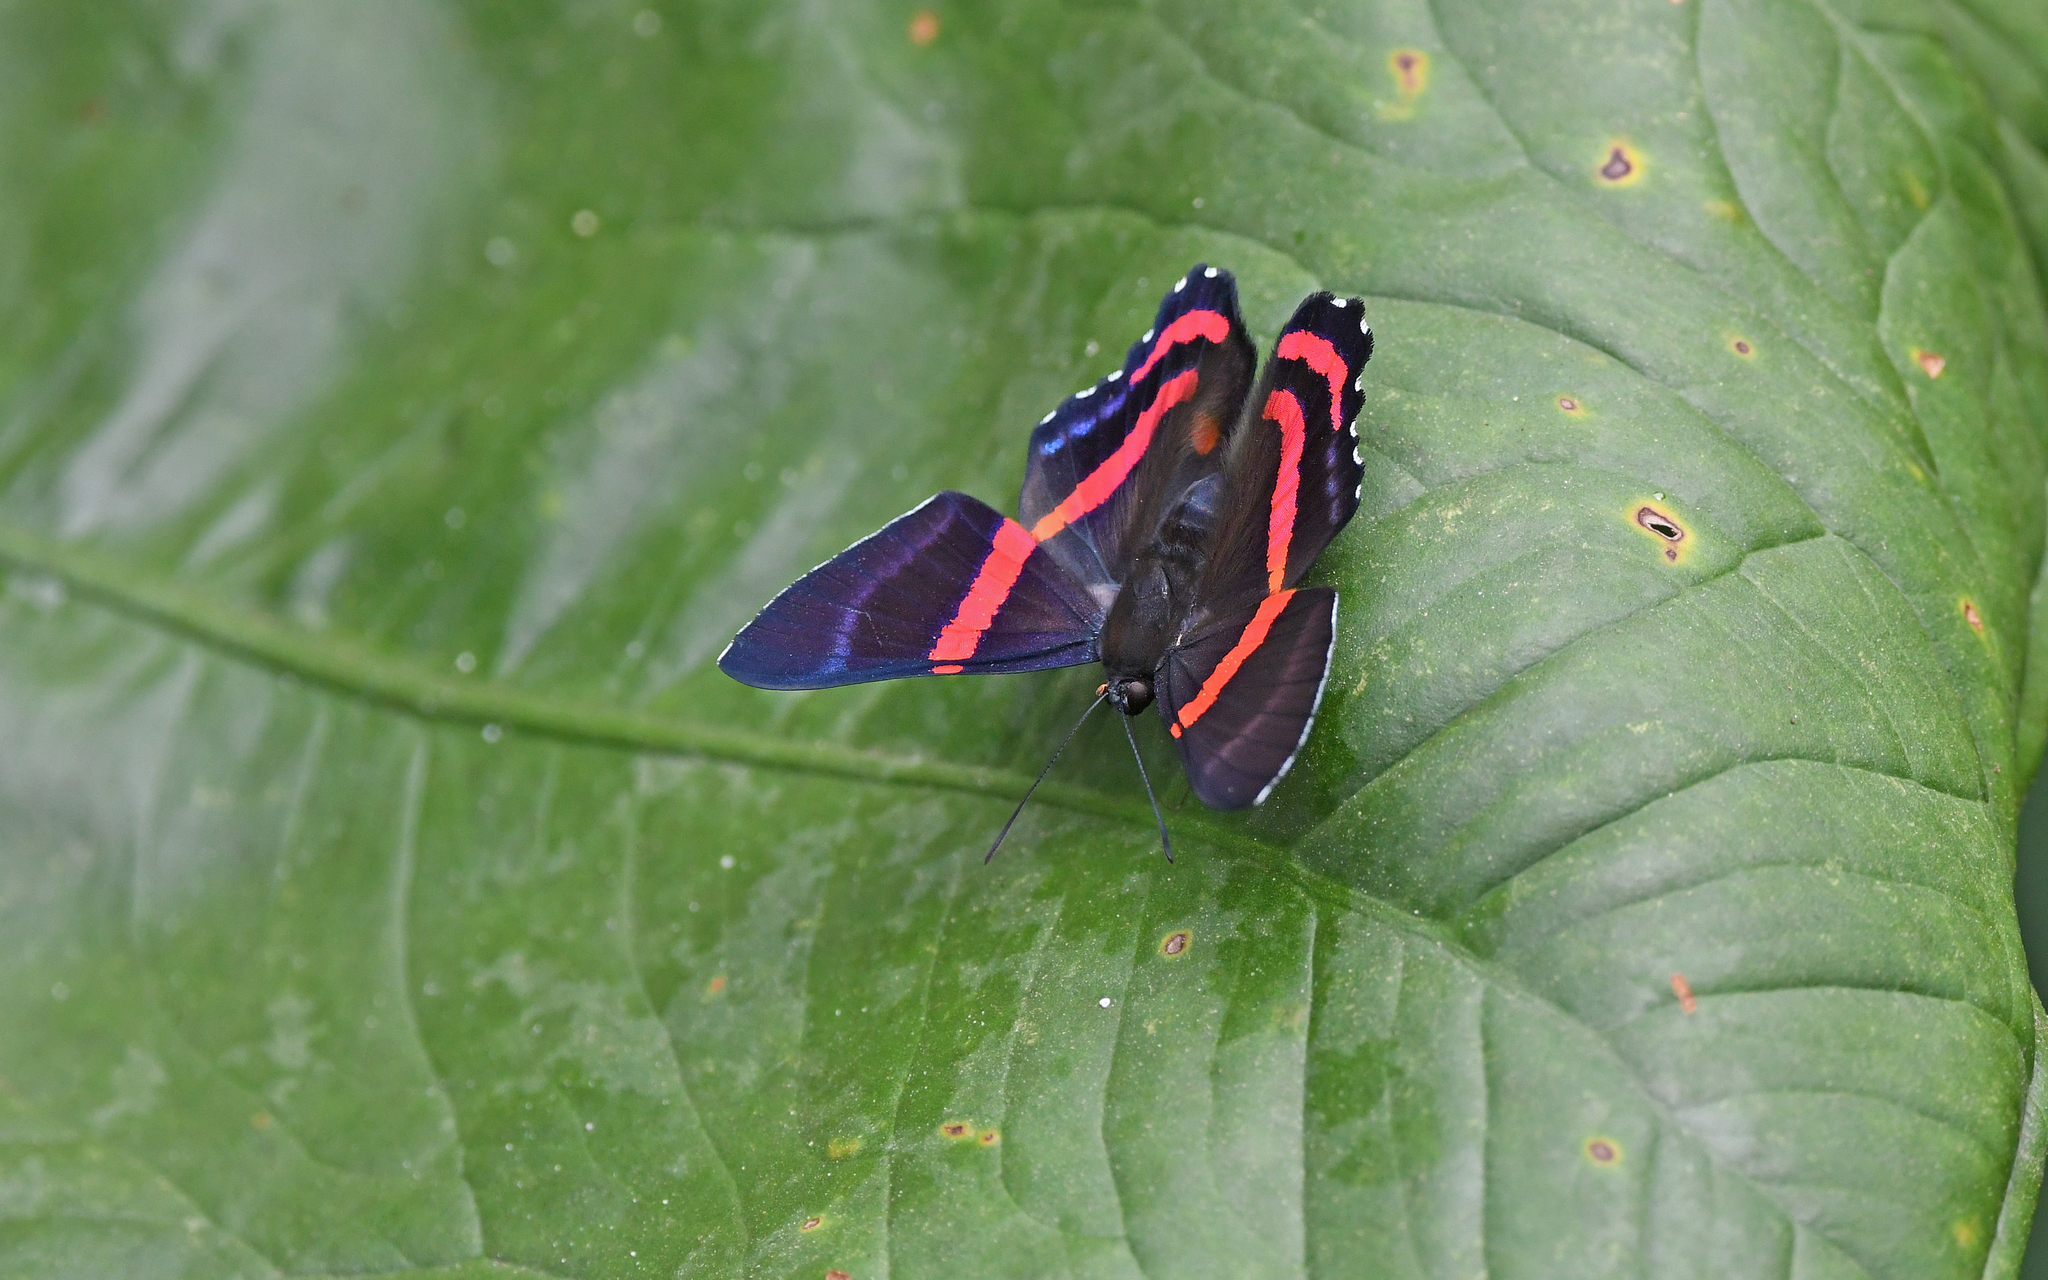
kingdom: Animalia
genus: Ancyluris
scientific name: Ancyluris etias
